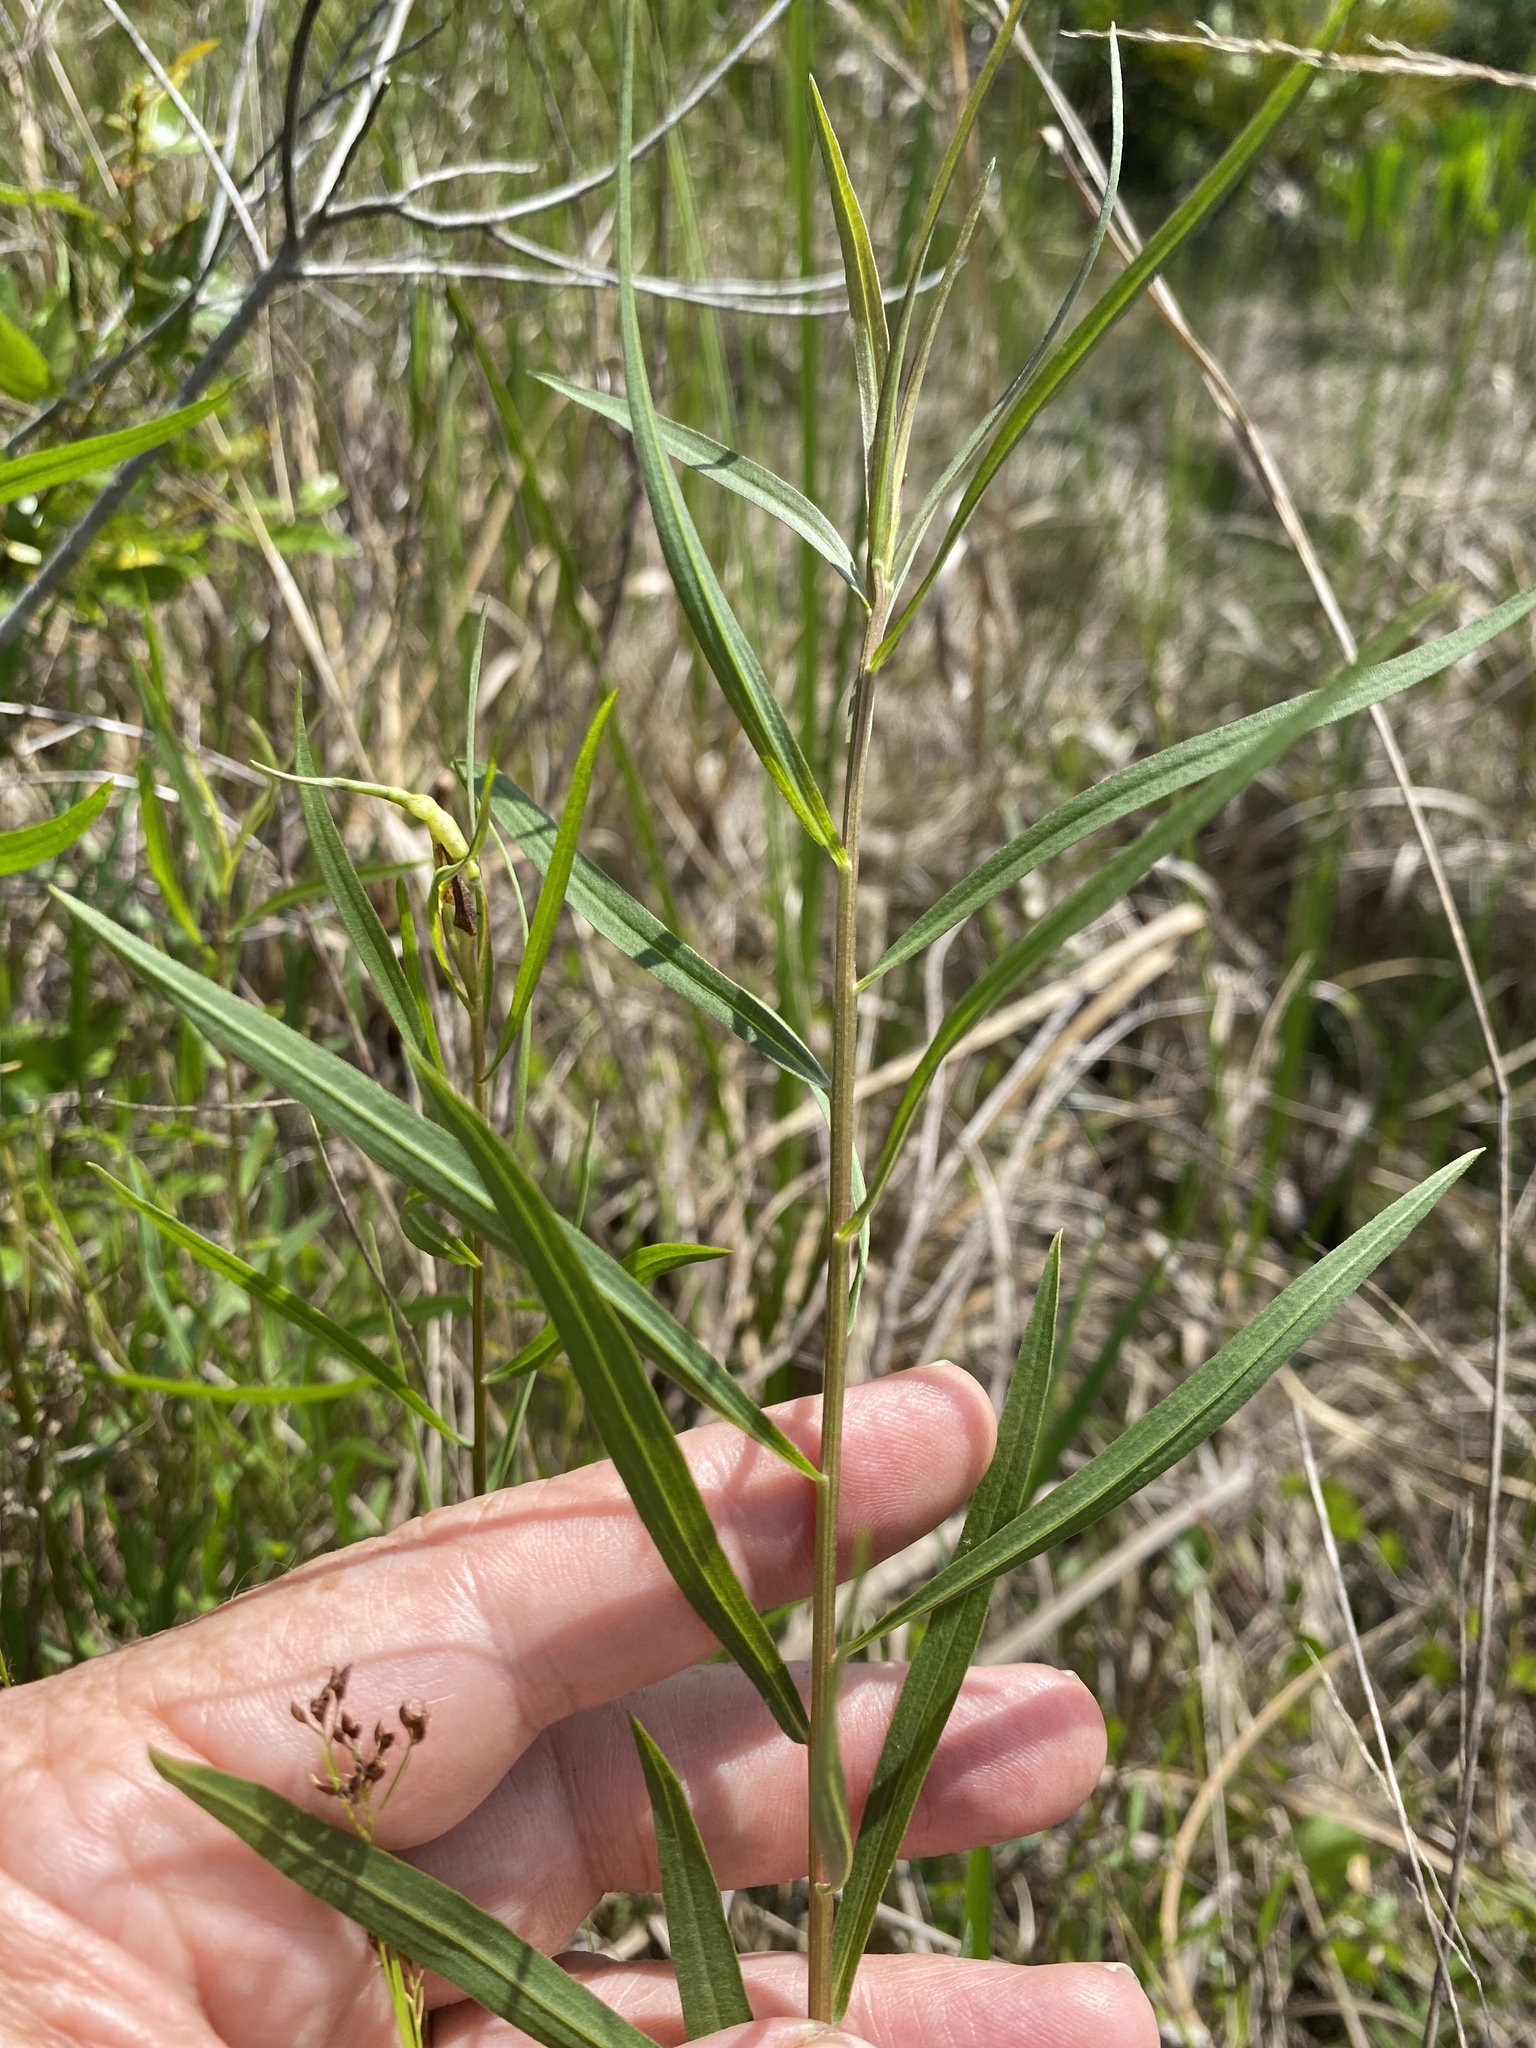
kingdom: Plantae
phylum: Tracheophyta
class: Magnoliopsida
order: Asterales
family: Asteraceae
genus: Euthamia
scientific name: Euthamia weakleyi
